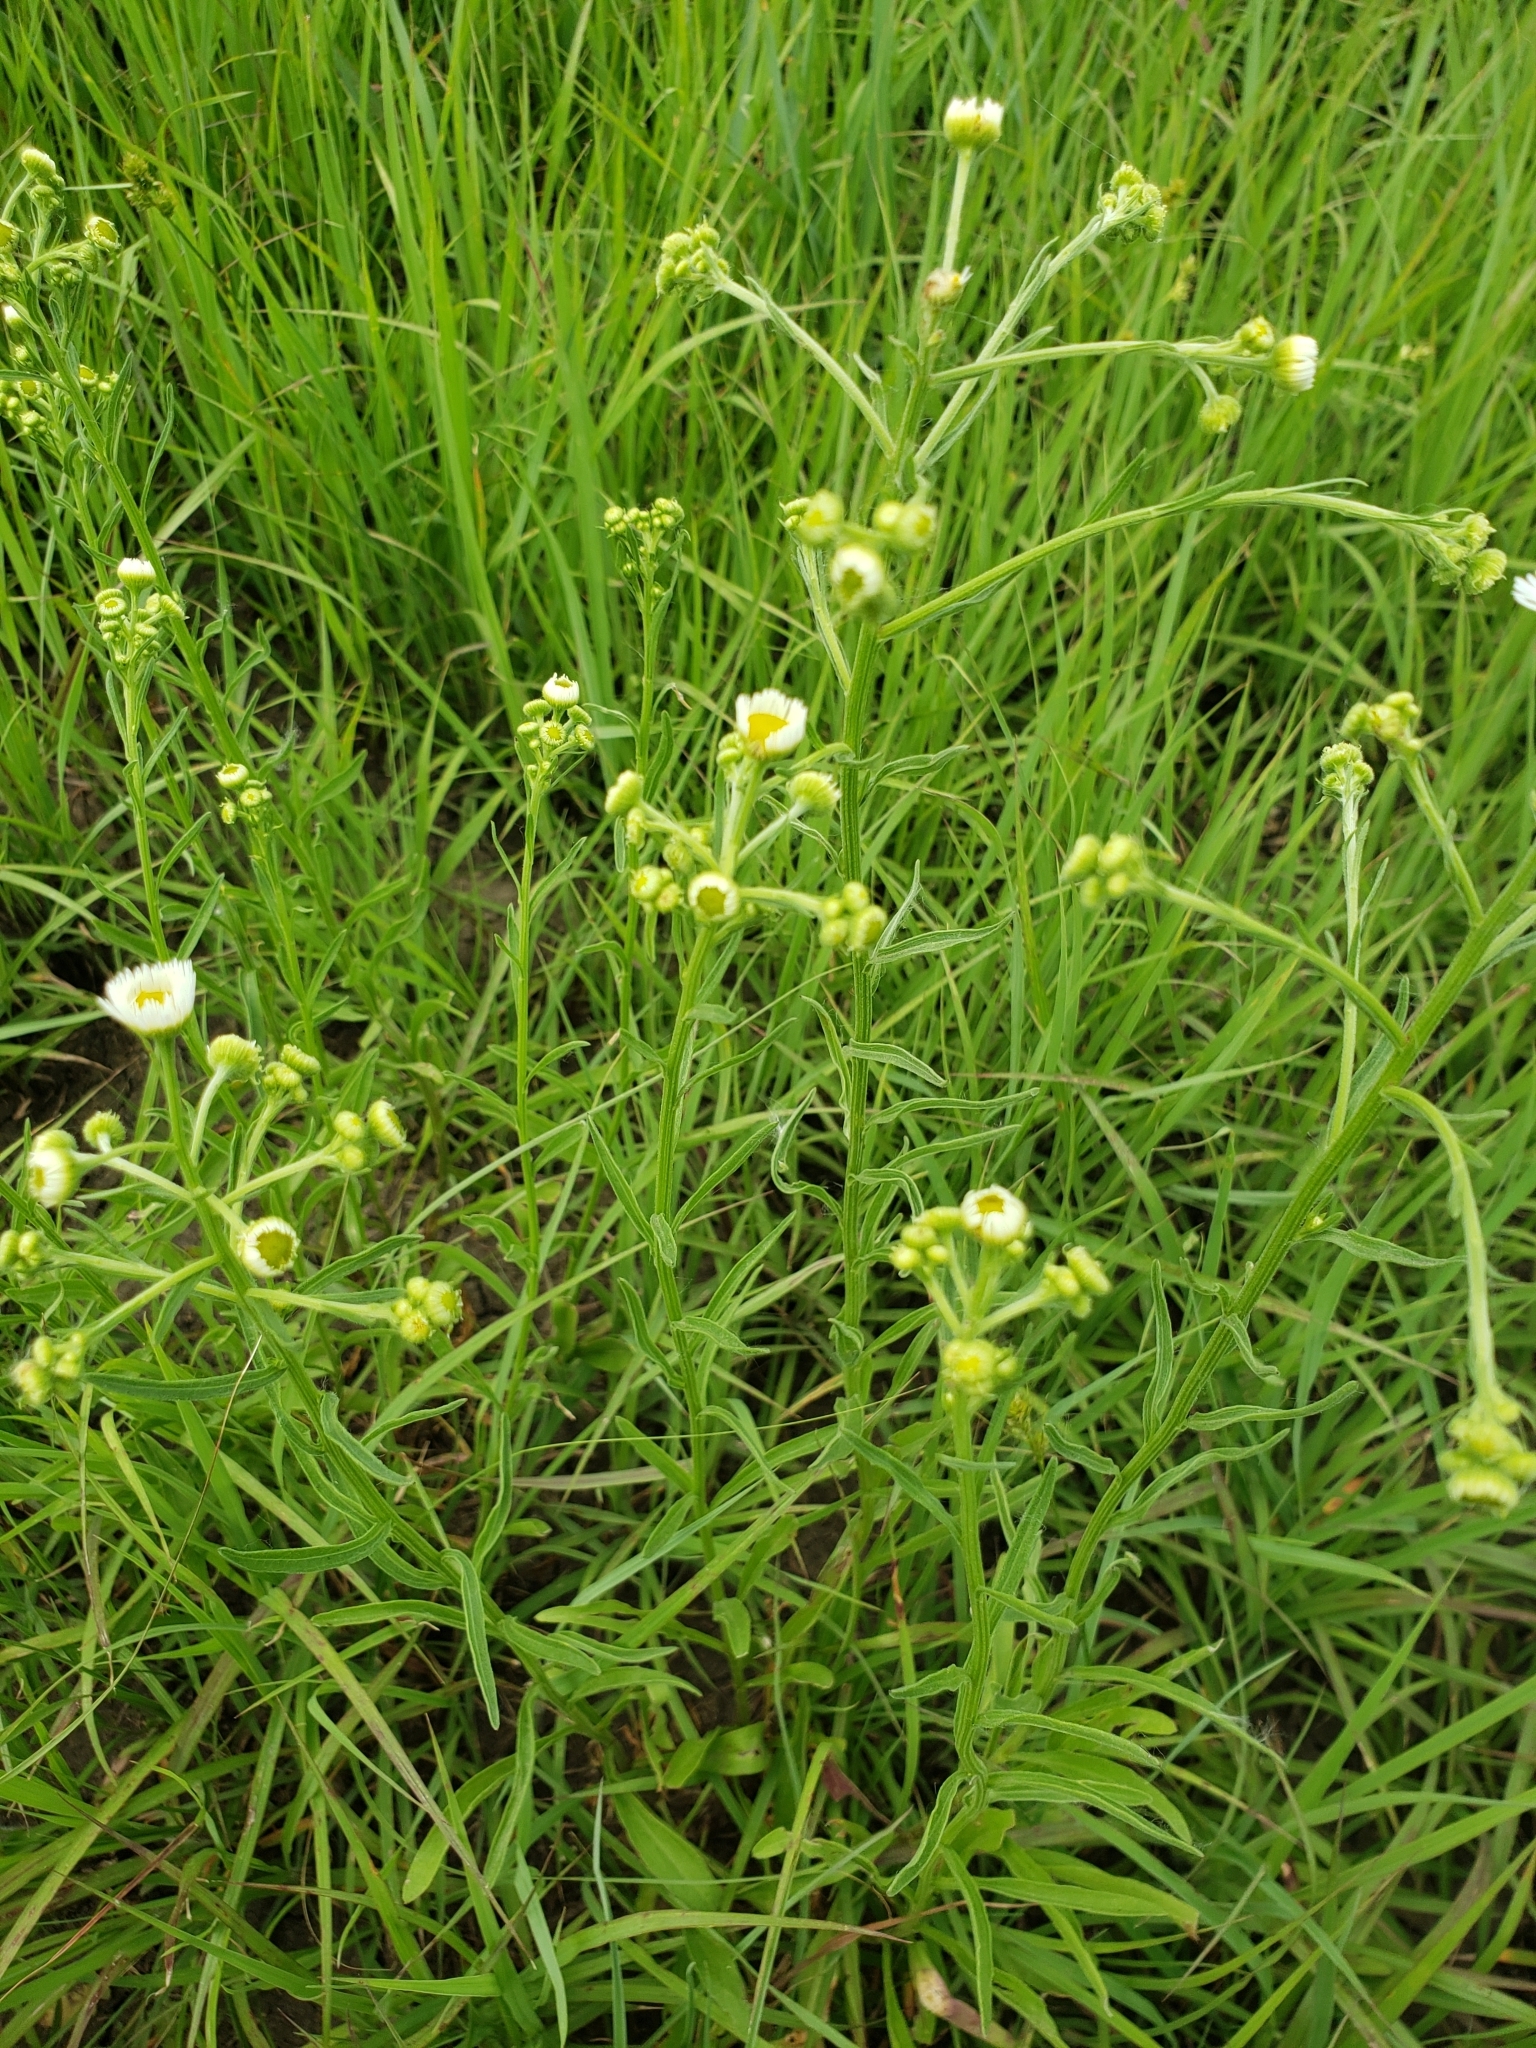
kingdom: Plantae
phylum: Tracheophyta
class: Magnoliopsida
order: Asterales
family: Asteraceae
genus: Erigeron
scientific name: Erigeron strigosus
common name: Common eastern fleabane
